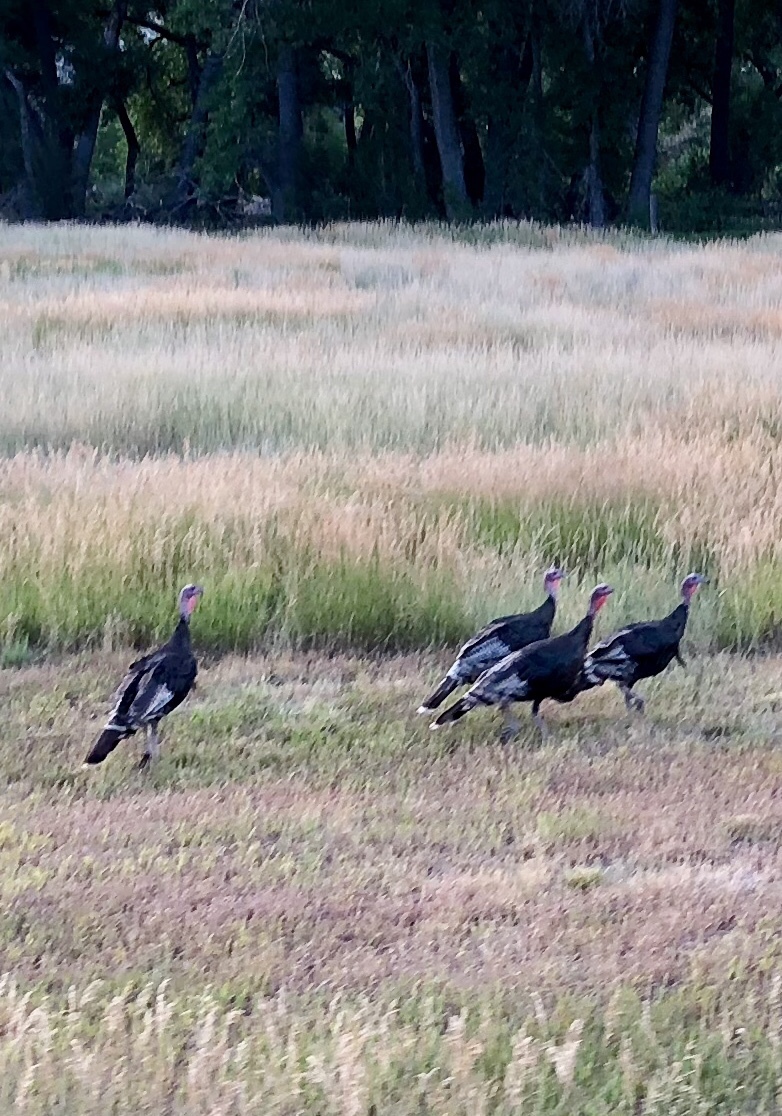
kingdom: Animalia
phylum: Chordata
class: Aves
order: Galliformes
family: Phasianidae
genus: Meleagris
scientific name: Meleagris gallopavo
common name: Wild turkey
